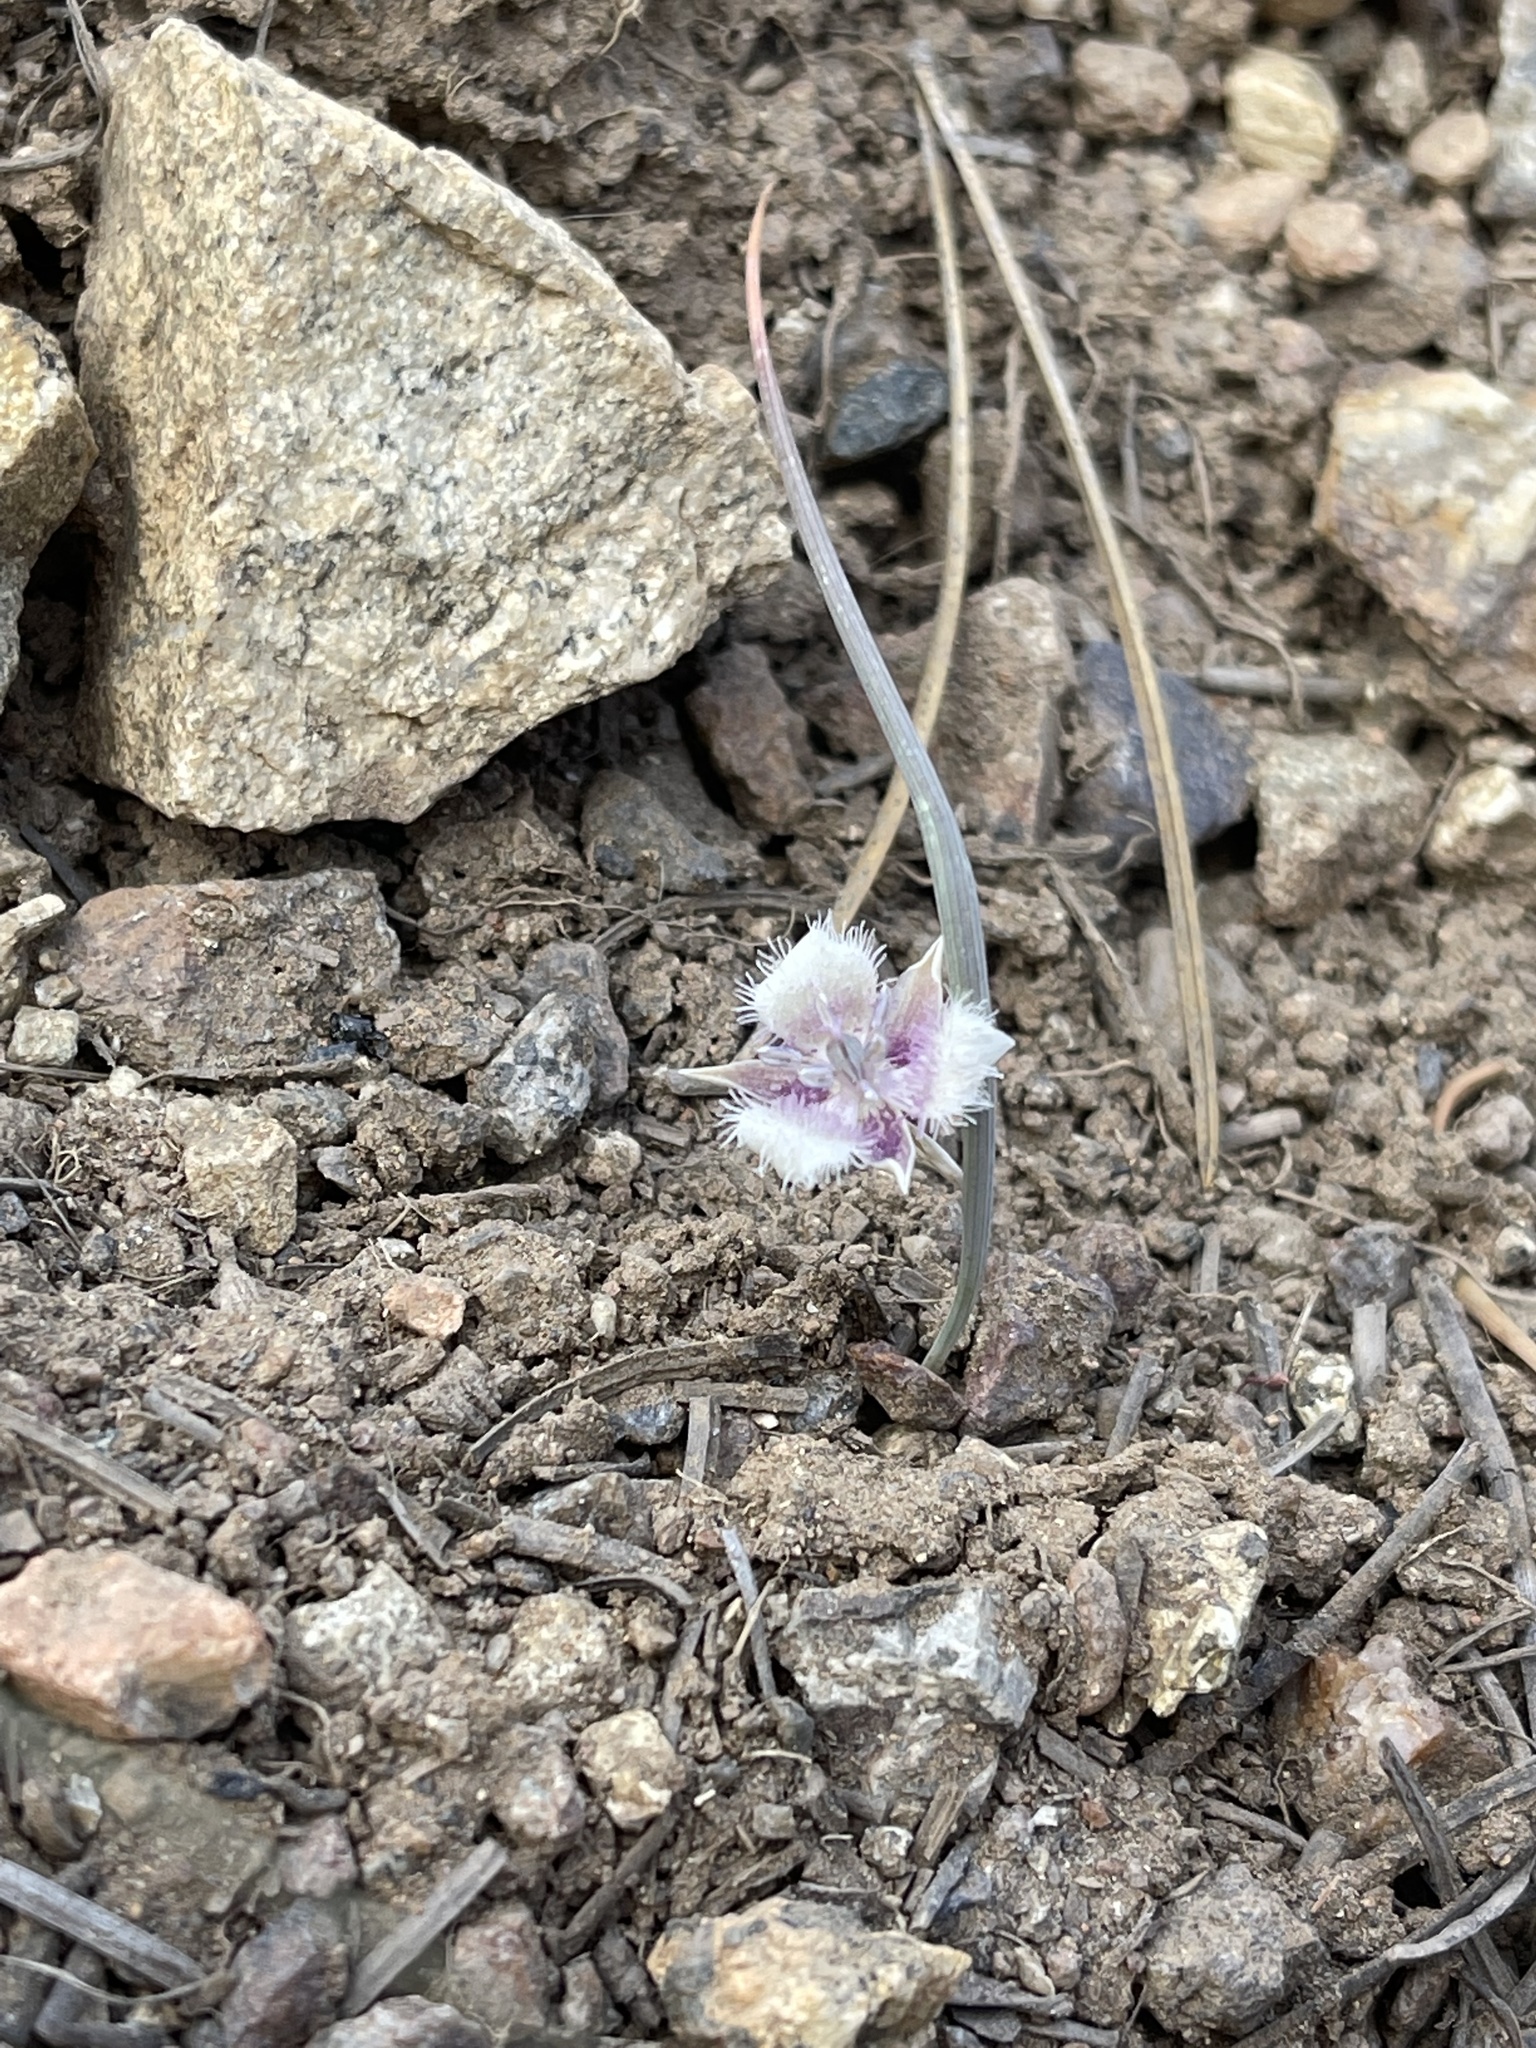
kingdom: Plantae
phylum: Tracheophyta
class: Liliopsida
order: Liliales
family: Liliaceae
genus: Calochortus
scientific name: Calochortus elegans
